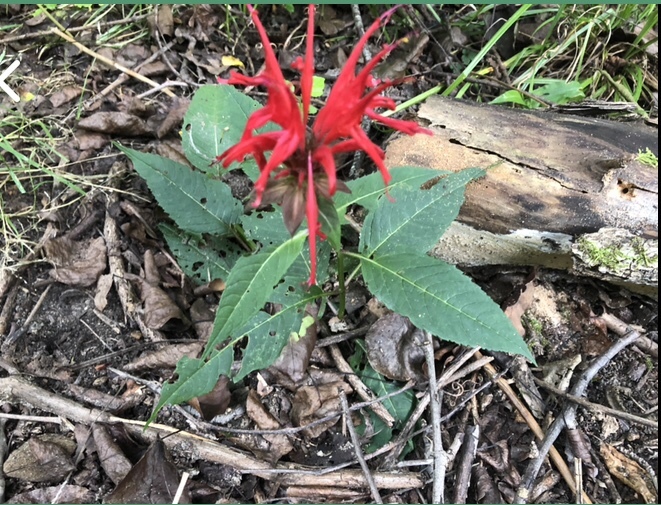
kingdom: Plantae
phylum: Tracheophyta
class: Magnoliopsida
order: Lamiales
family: Lamiaceae
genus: Monarda
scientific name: Monarda didyma
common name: Beebalm
